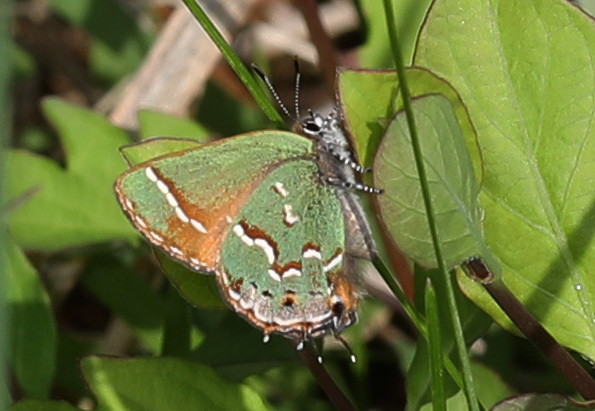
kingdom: Animalia
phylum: Arthropoda
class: Insecta
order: Lepidoptera
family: Lycaenidae
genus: Mitoura
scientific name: Mitoura gryneus
